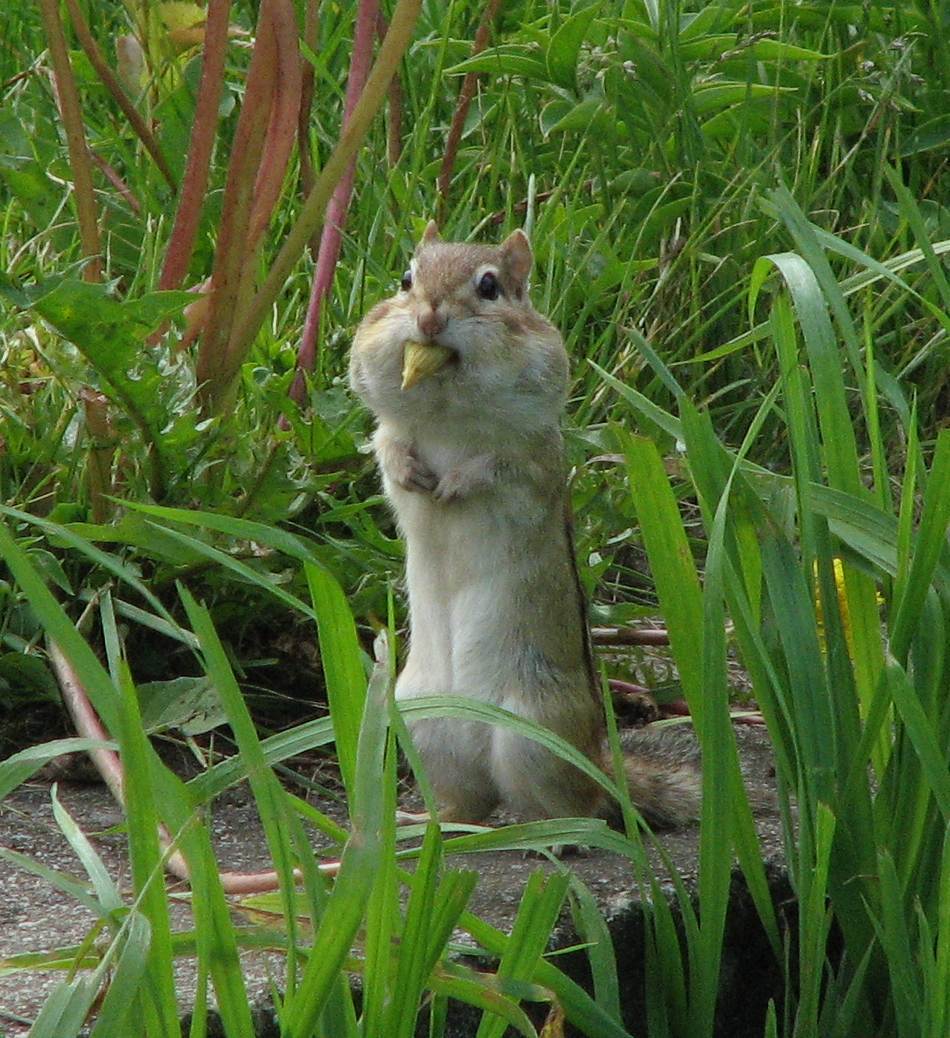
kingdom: Animalia
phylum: Chordata
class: Mammalia
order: Rodentia
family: Sciuridae
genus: Tamias
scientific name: Tamias striatus
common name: Eastern chipmunk
